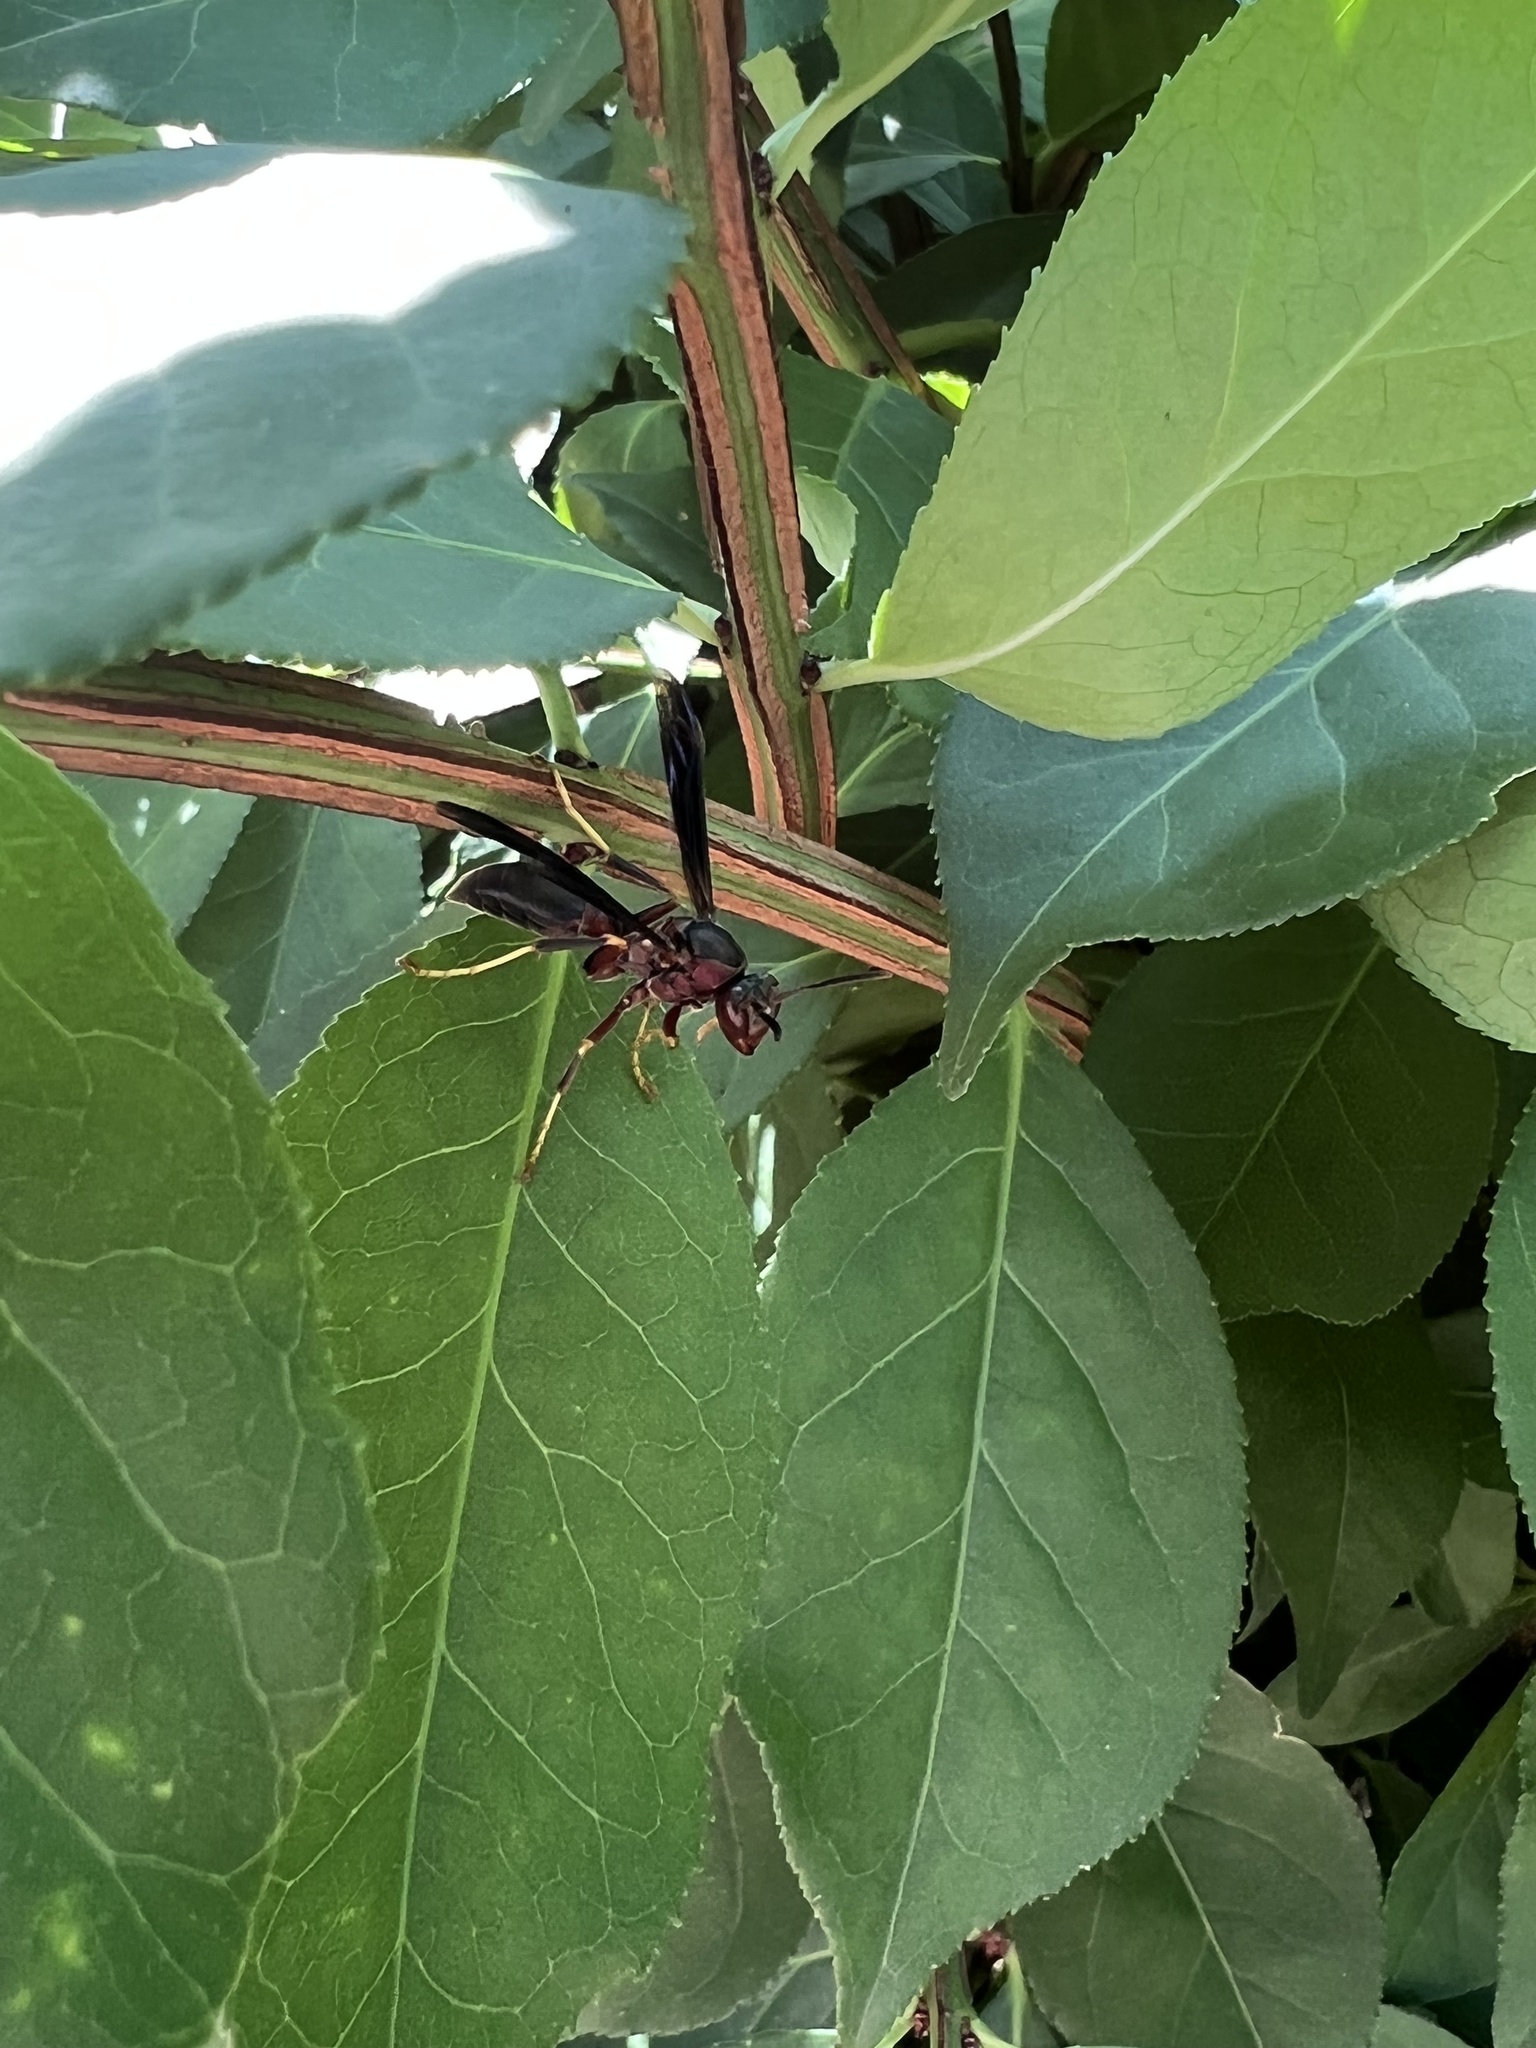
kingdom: Animalia
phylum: Arthropoda
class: Insecta
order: Hymenoptera
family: Eumenidae
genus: Polistes
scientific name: Polistes metricus
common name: Metric paper wasp
